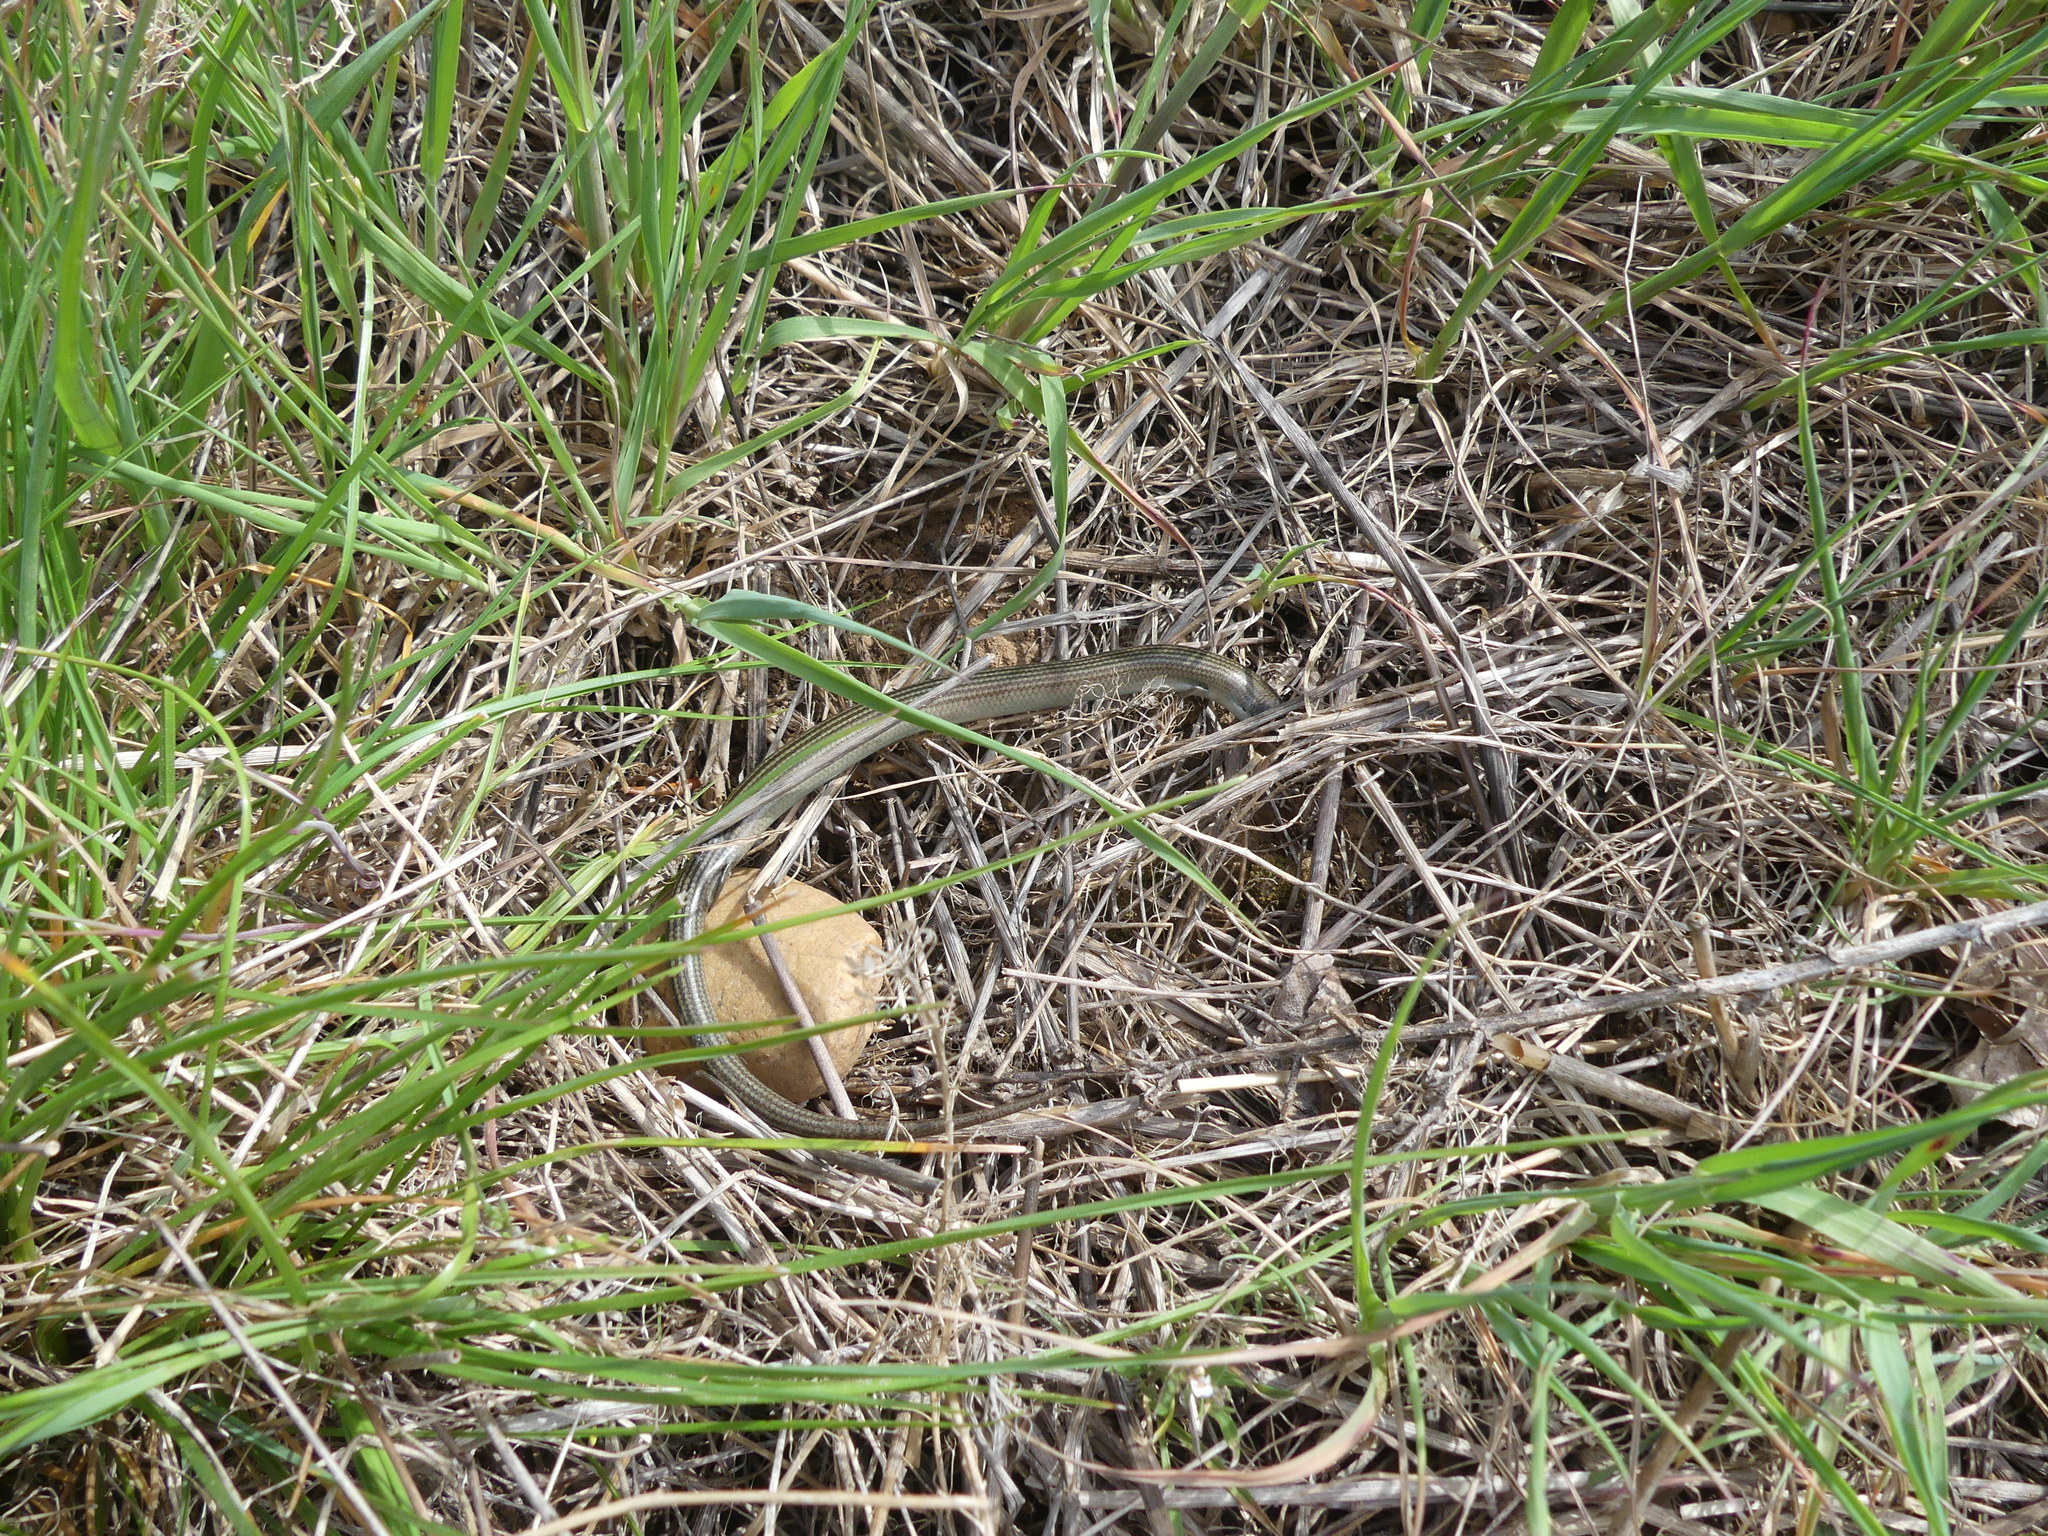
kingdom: Animalia
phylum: Chordata
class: Squamata
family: Scincidae
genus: Chalcides
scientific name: Chalcides striatus
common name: Western (or iberian) three-toed skink
